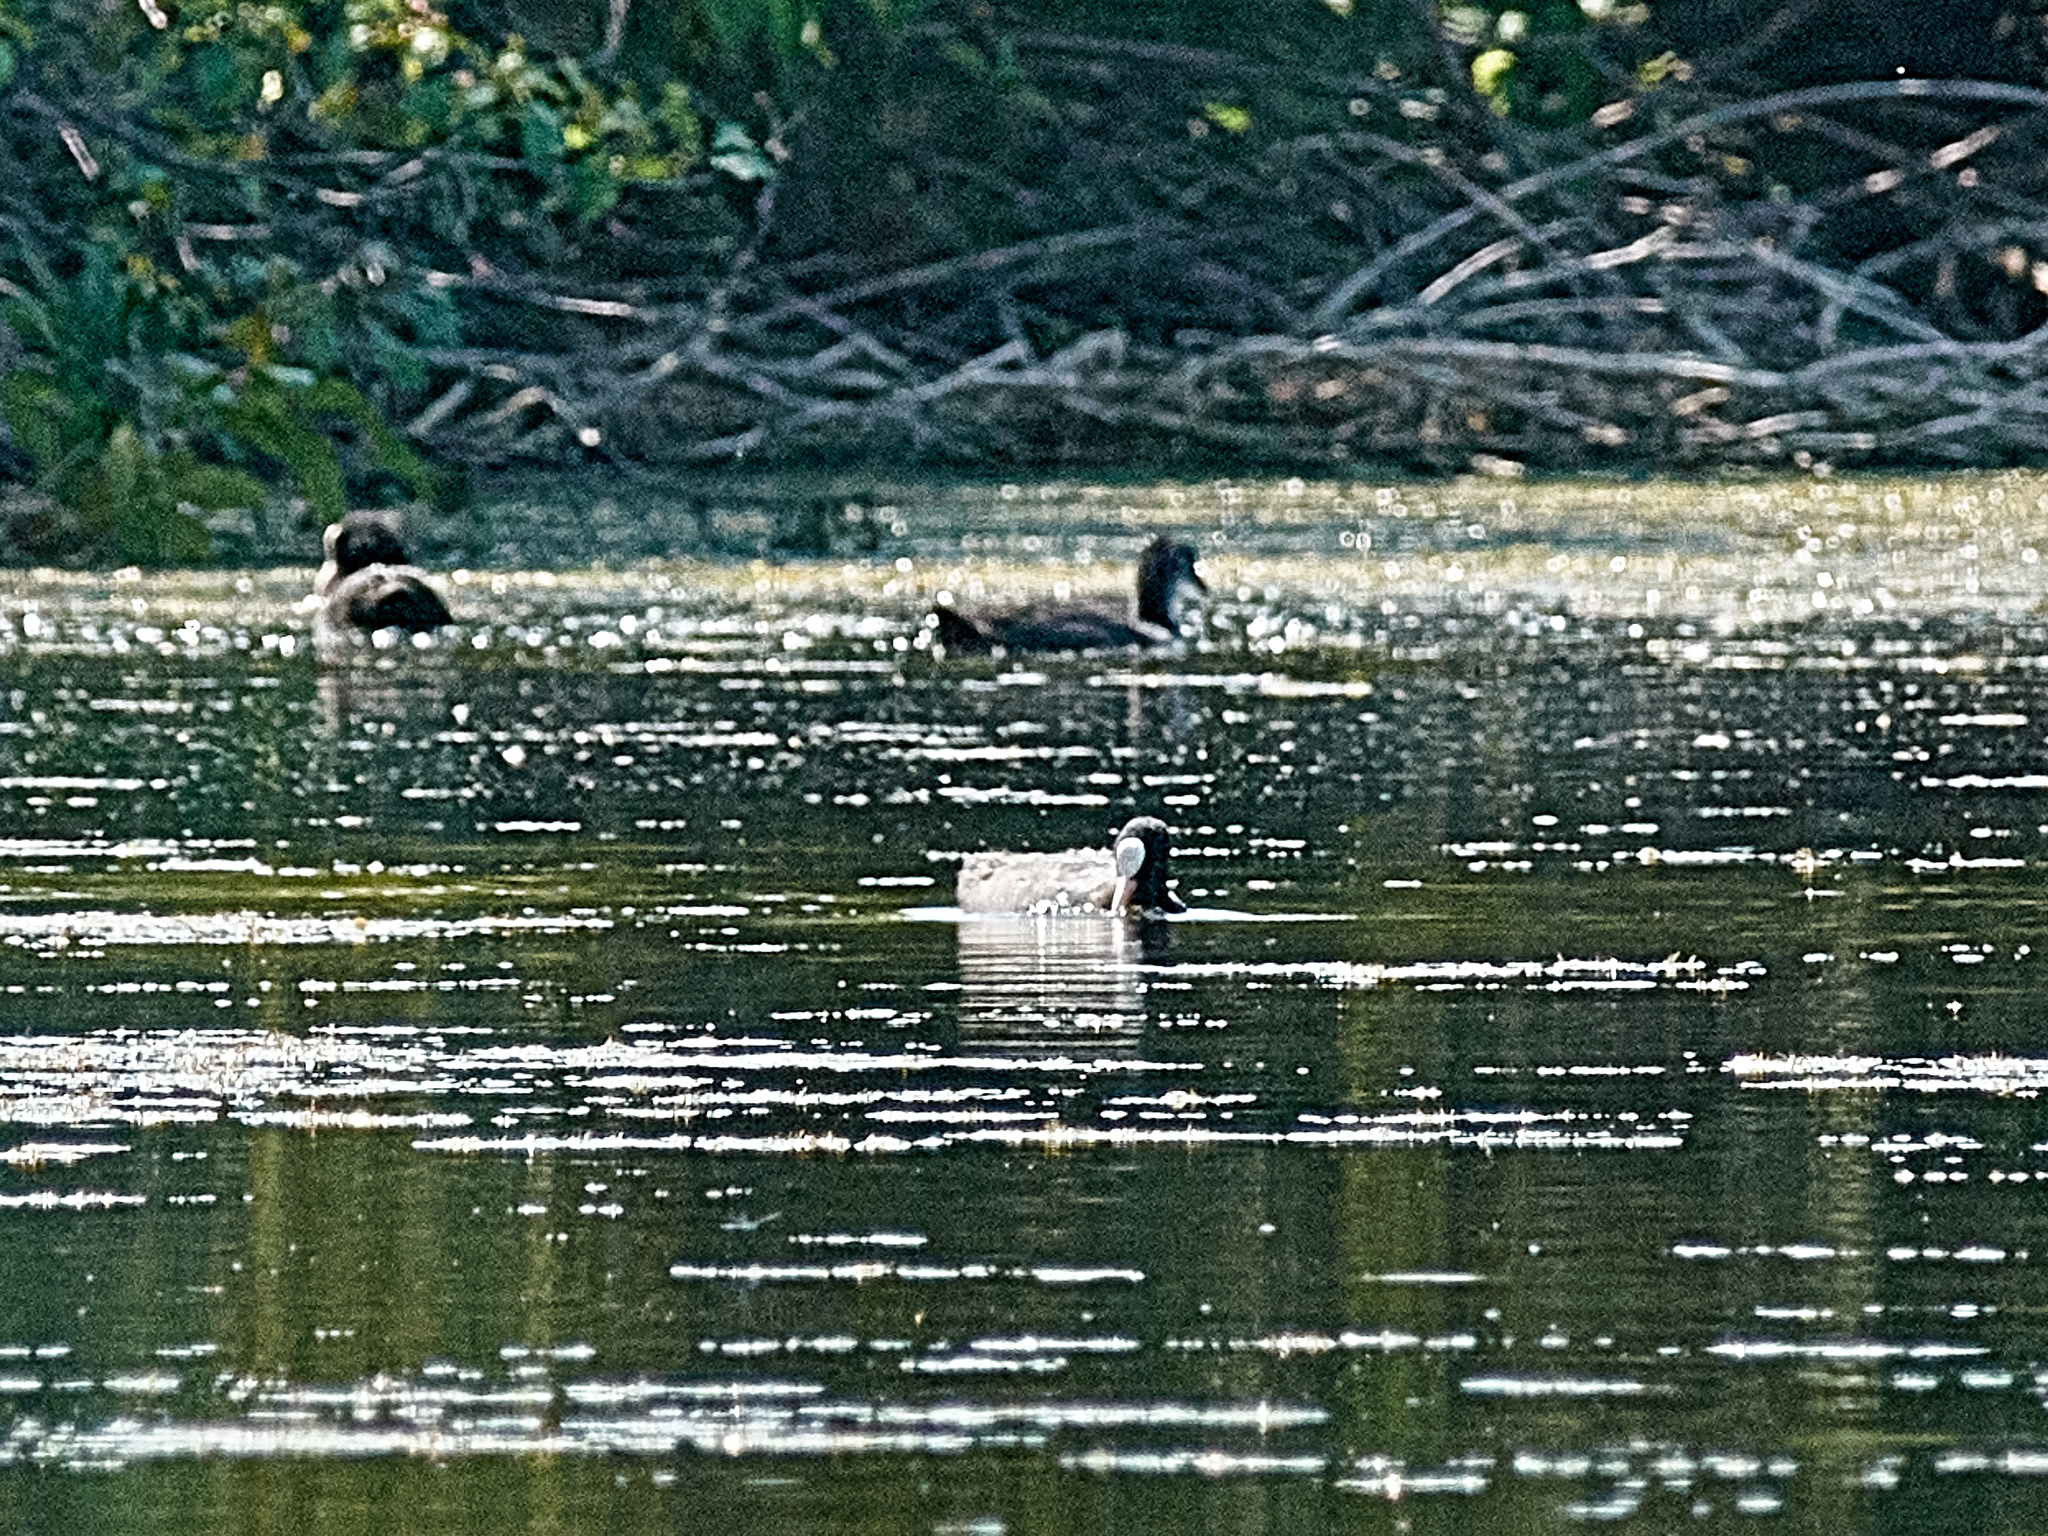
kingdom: Animalia
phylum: Chordata
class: Aves
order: Gruiformes
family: Rallidae
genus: Fulica
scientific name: Fulica atra
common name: Eurasian coot
